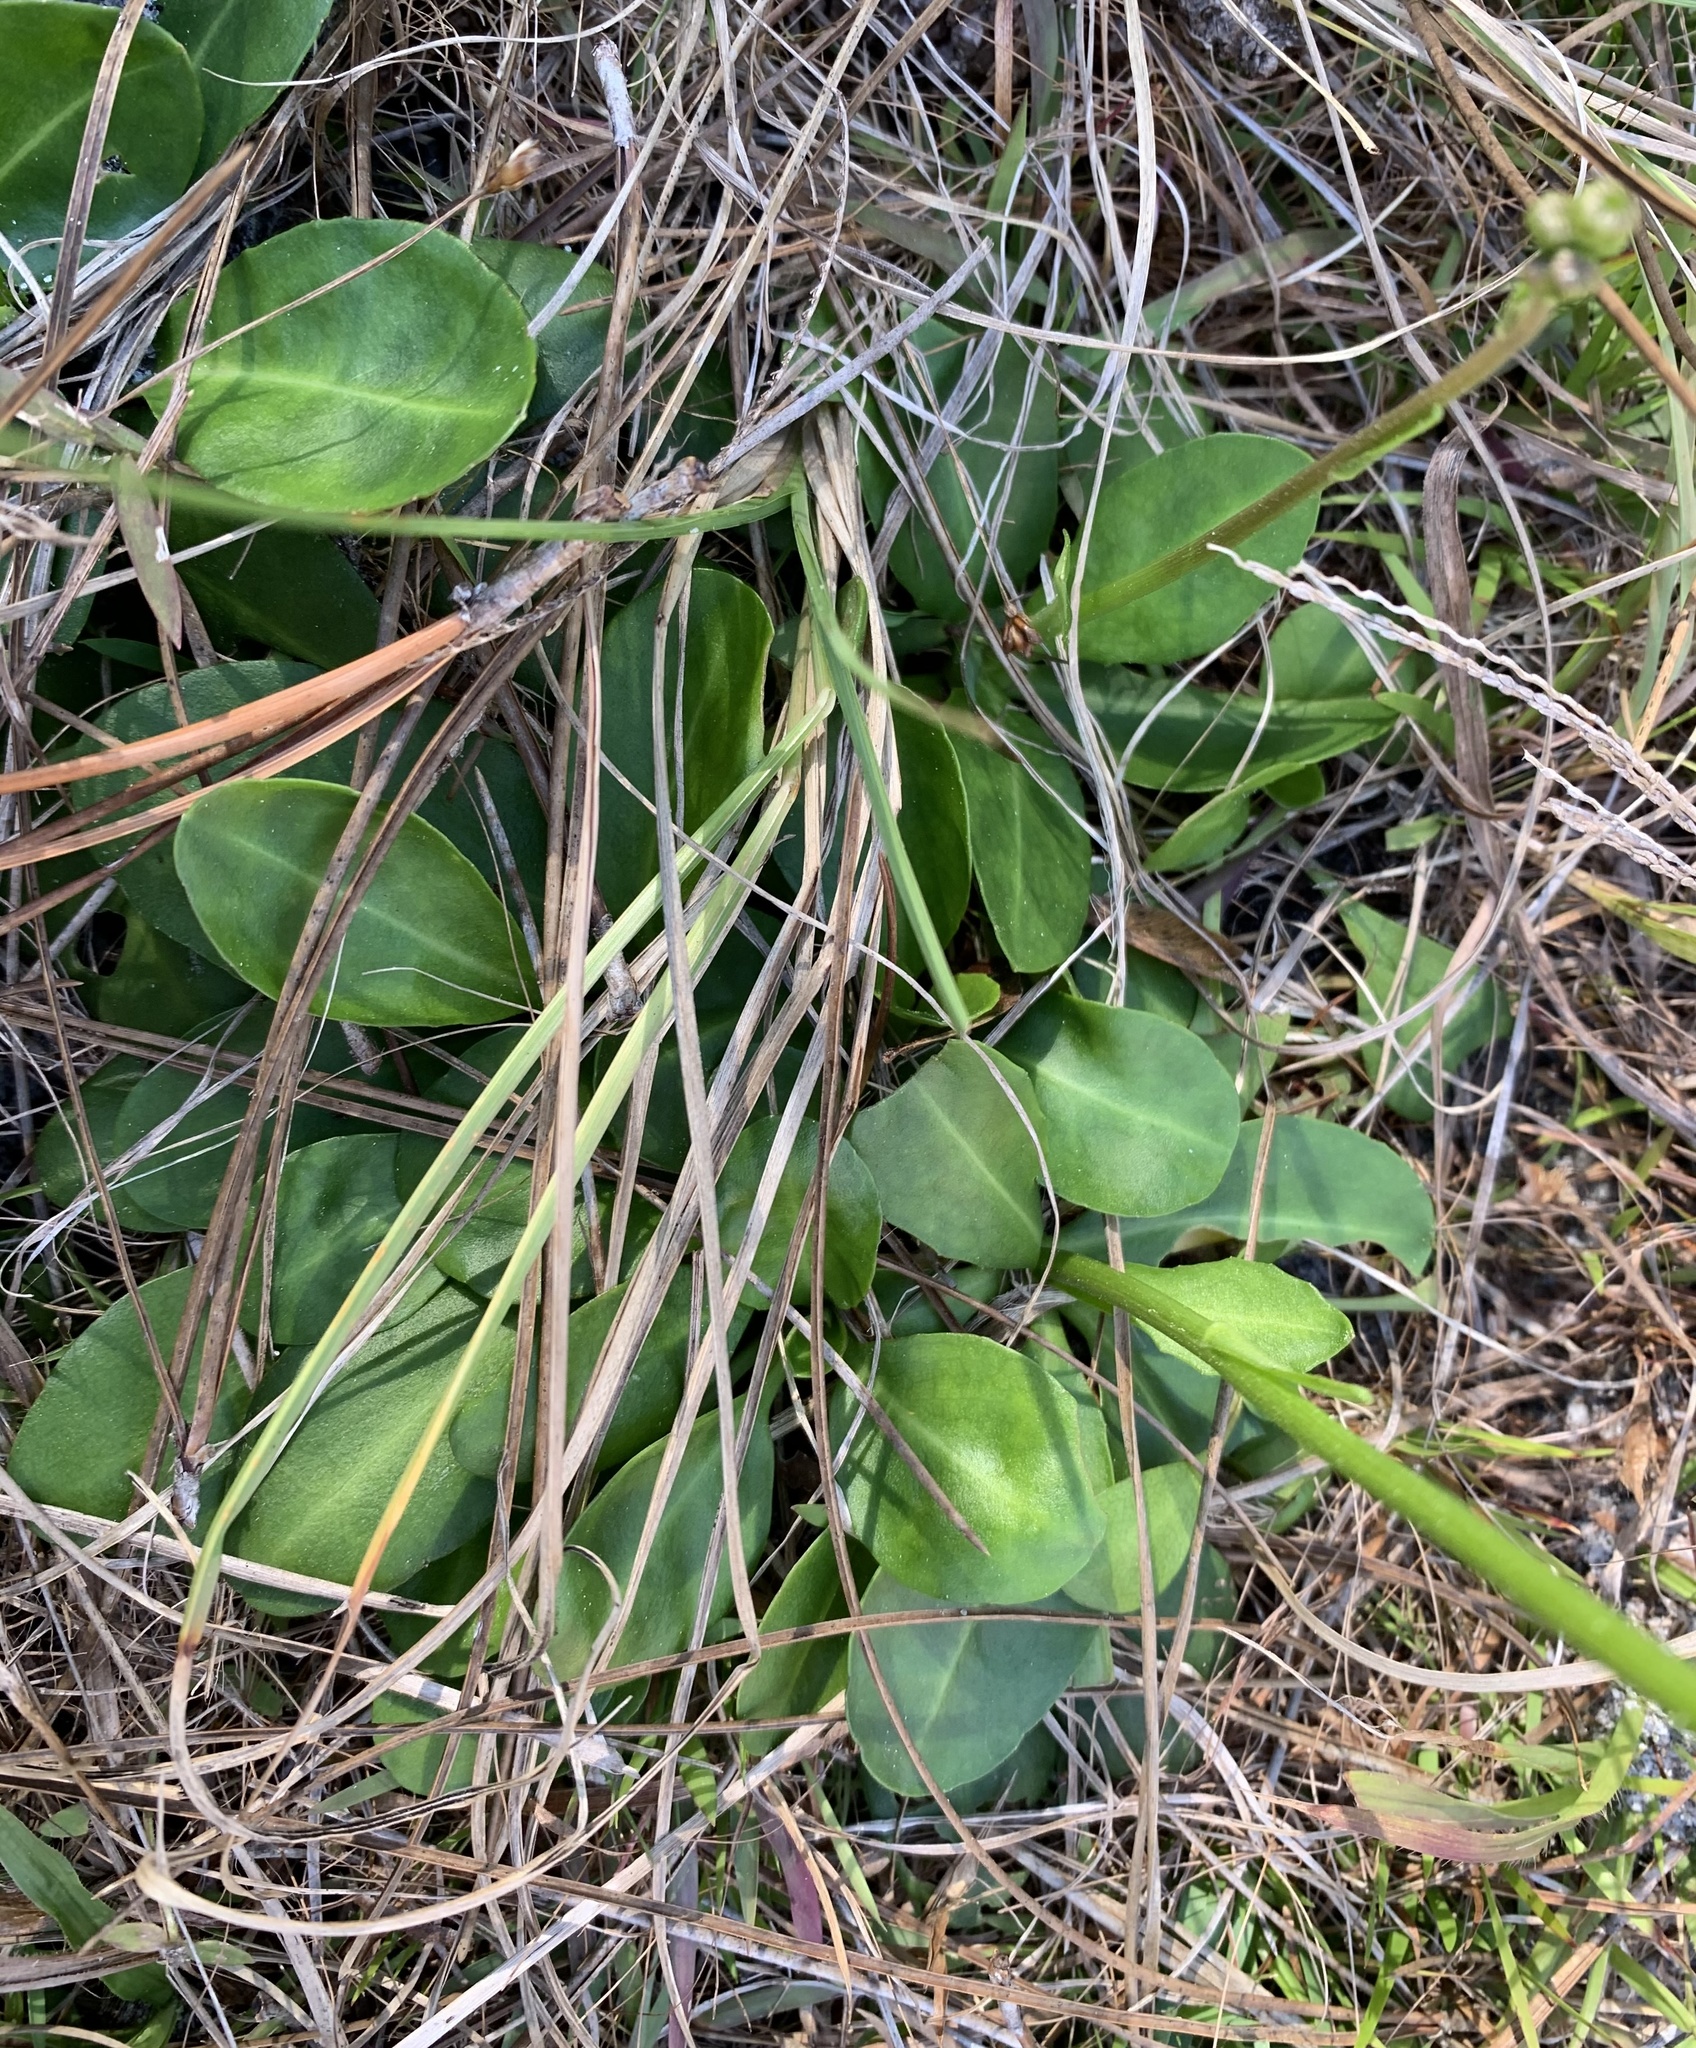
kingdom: Plantae
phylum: Tracheophyta
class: Magnoliopsida
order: Asterales
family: Asteraceae
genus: Erigeron
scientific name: Erigeron vernus
